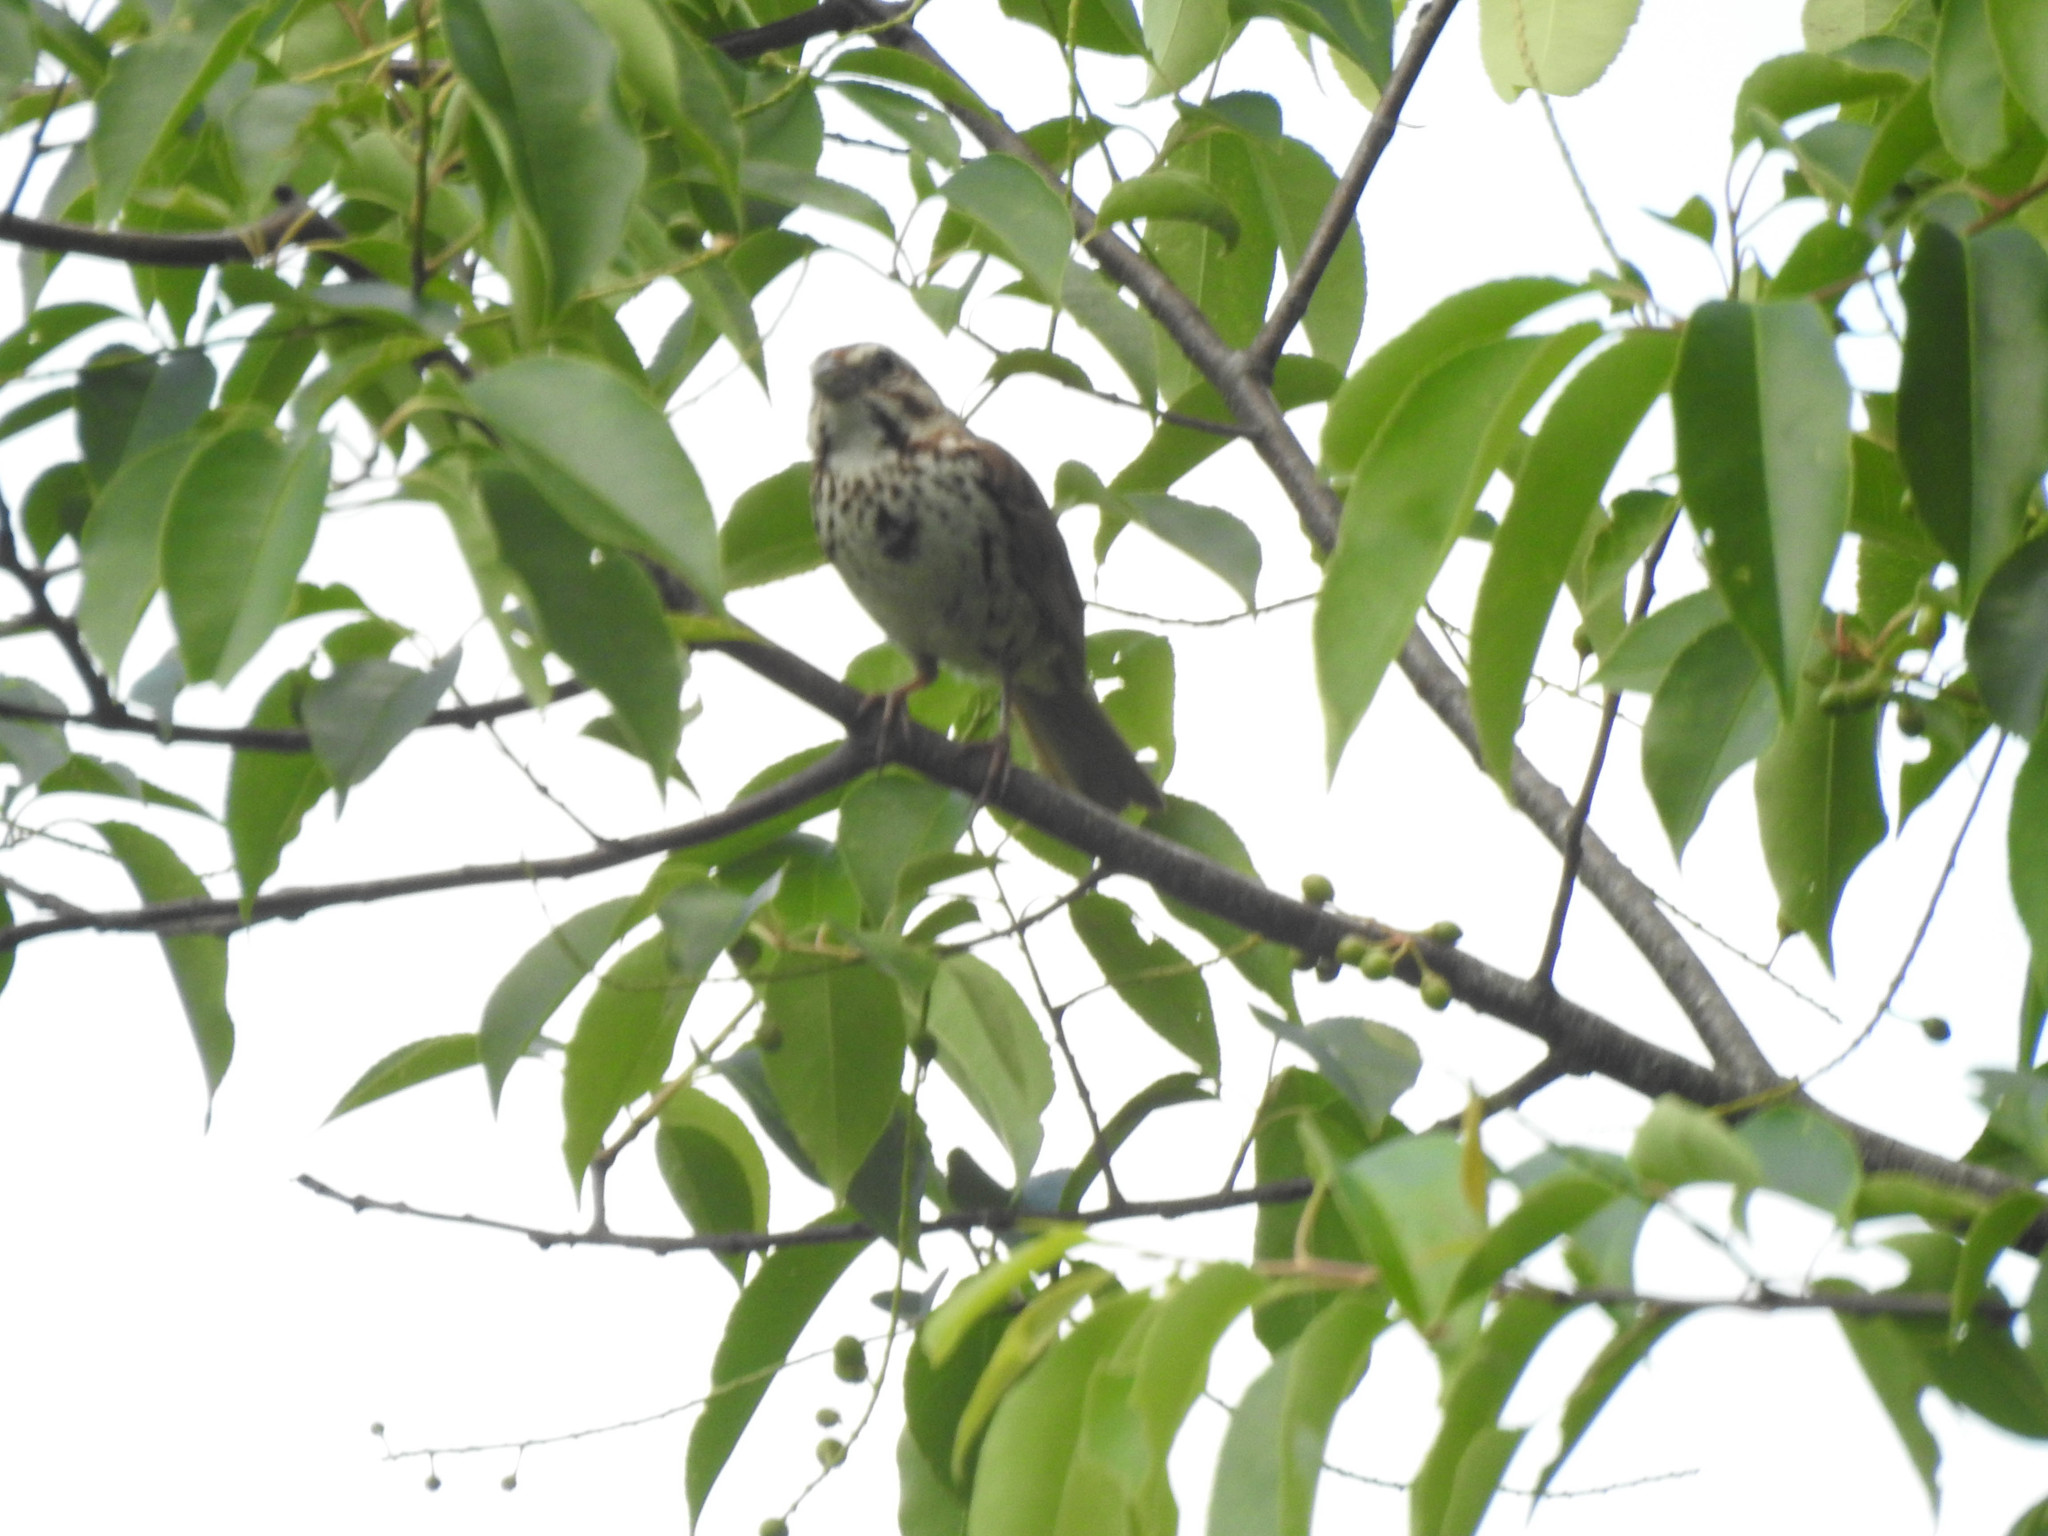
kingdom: Animalia
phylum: Chordata
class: Aves
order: Passeriformes
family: Passerellidae
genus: Melospiza
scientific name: Melospiza melodia
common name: Song sparrow
